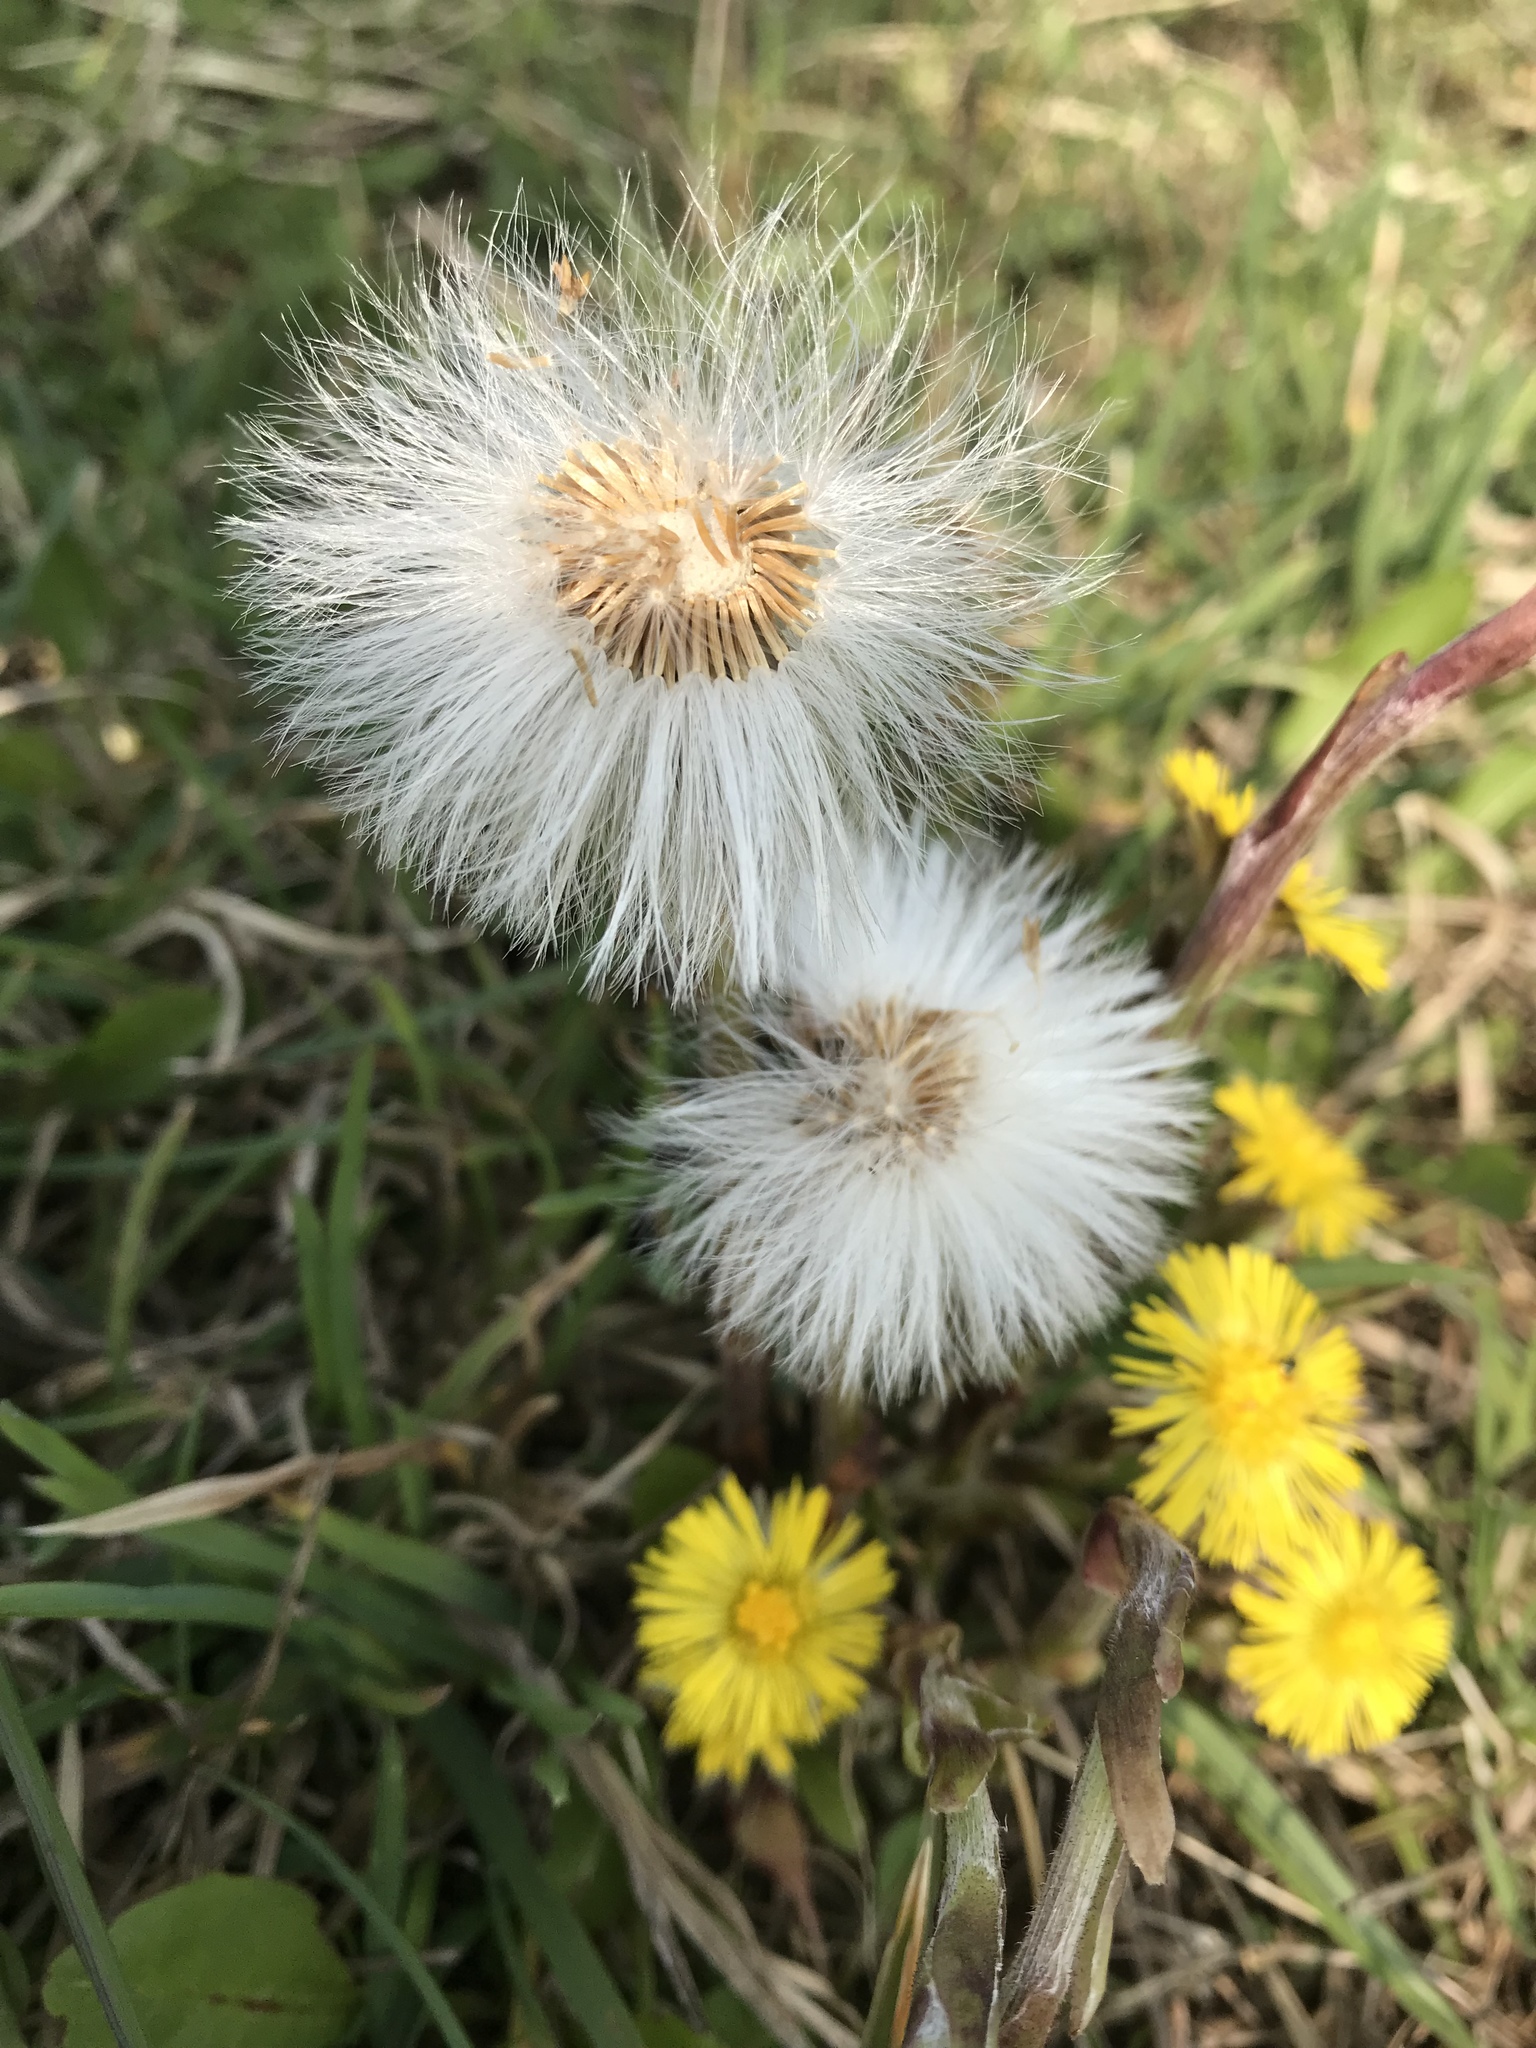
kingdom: Plantae
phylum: Tracheophyta
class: Magnoliopsida
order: Asterales
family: Asteraceae
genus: Tussilago
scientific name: Tussilago farfara
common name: Coltsfoot
